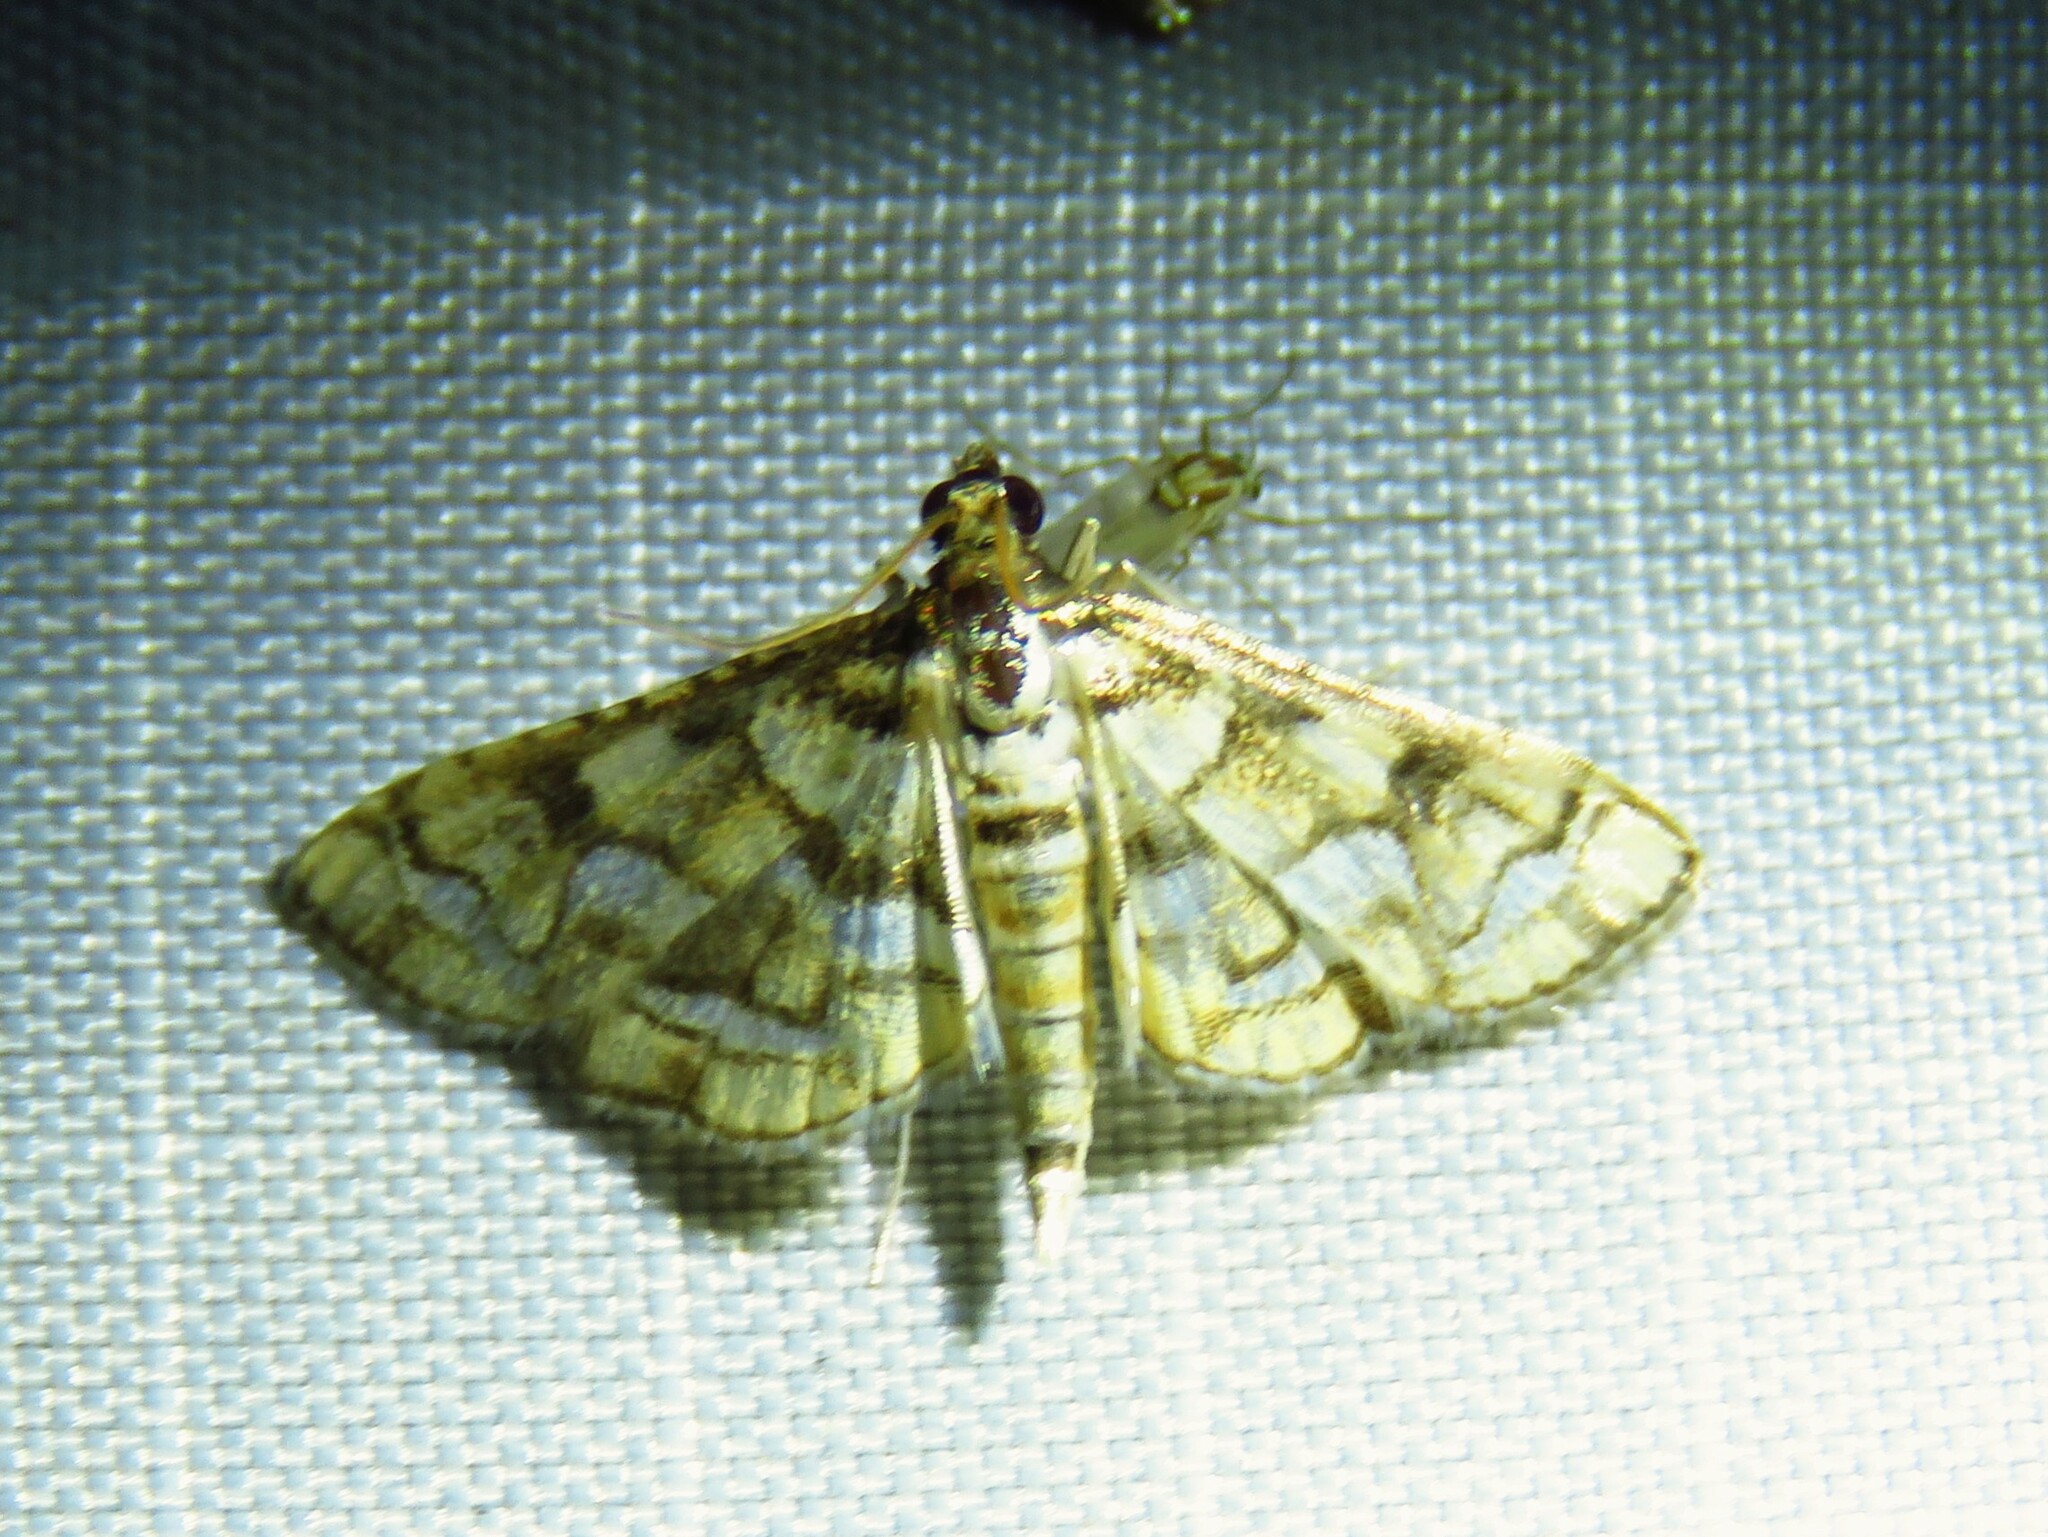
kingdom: Animalia
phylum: Arthropoda
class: Insecta
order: Lepidoptera
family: Crambidae
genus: Hileithia
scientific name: Hileithia magualis
